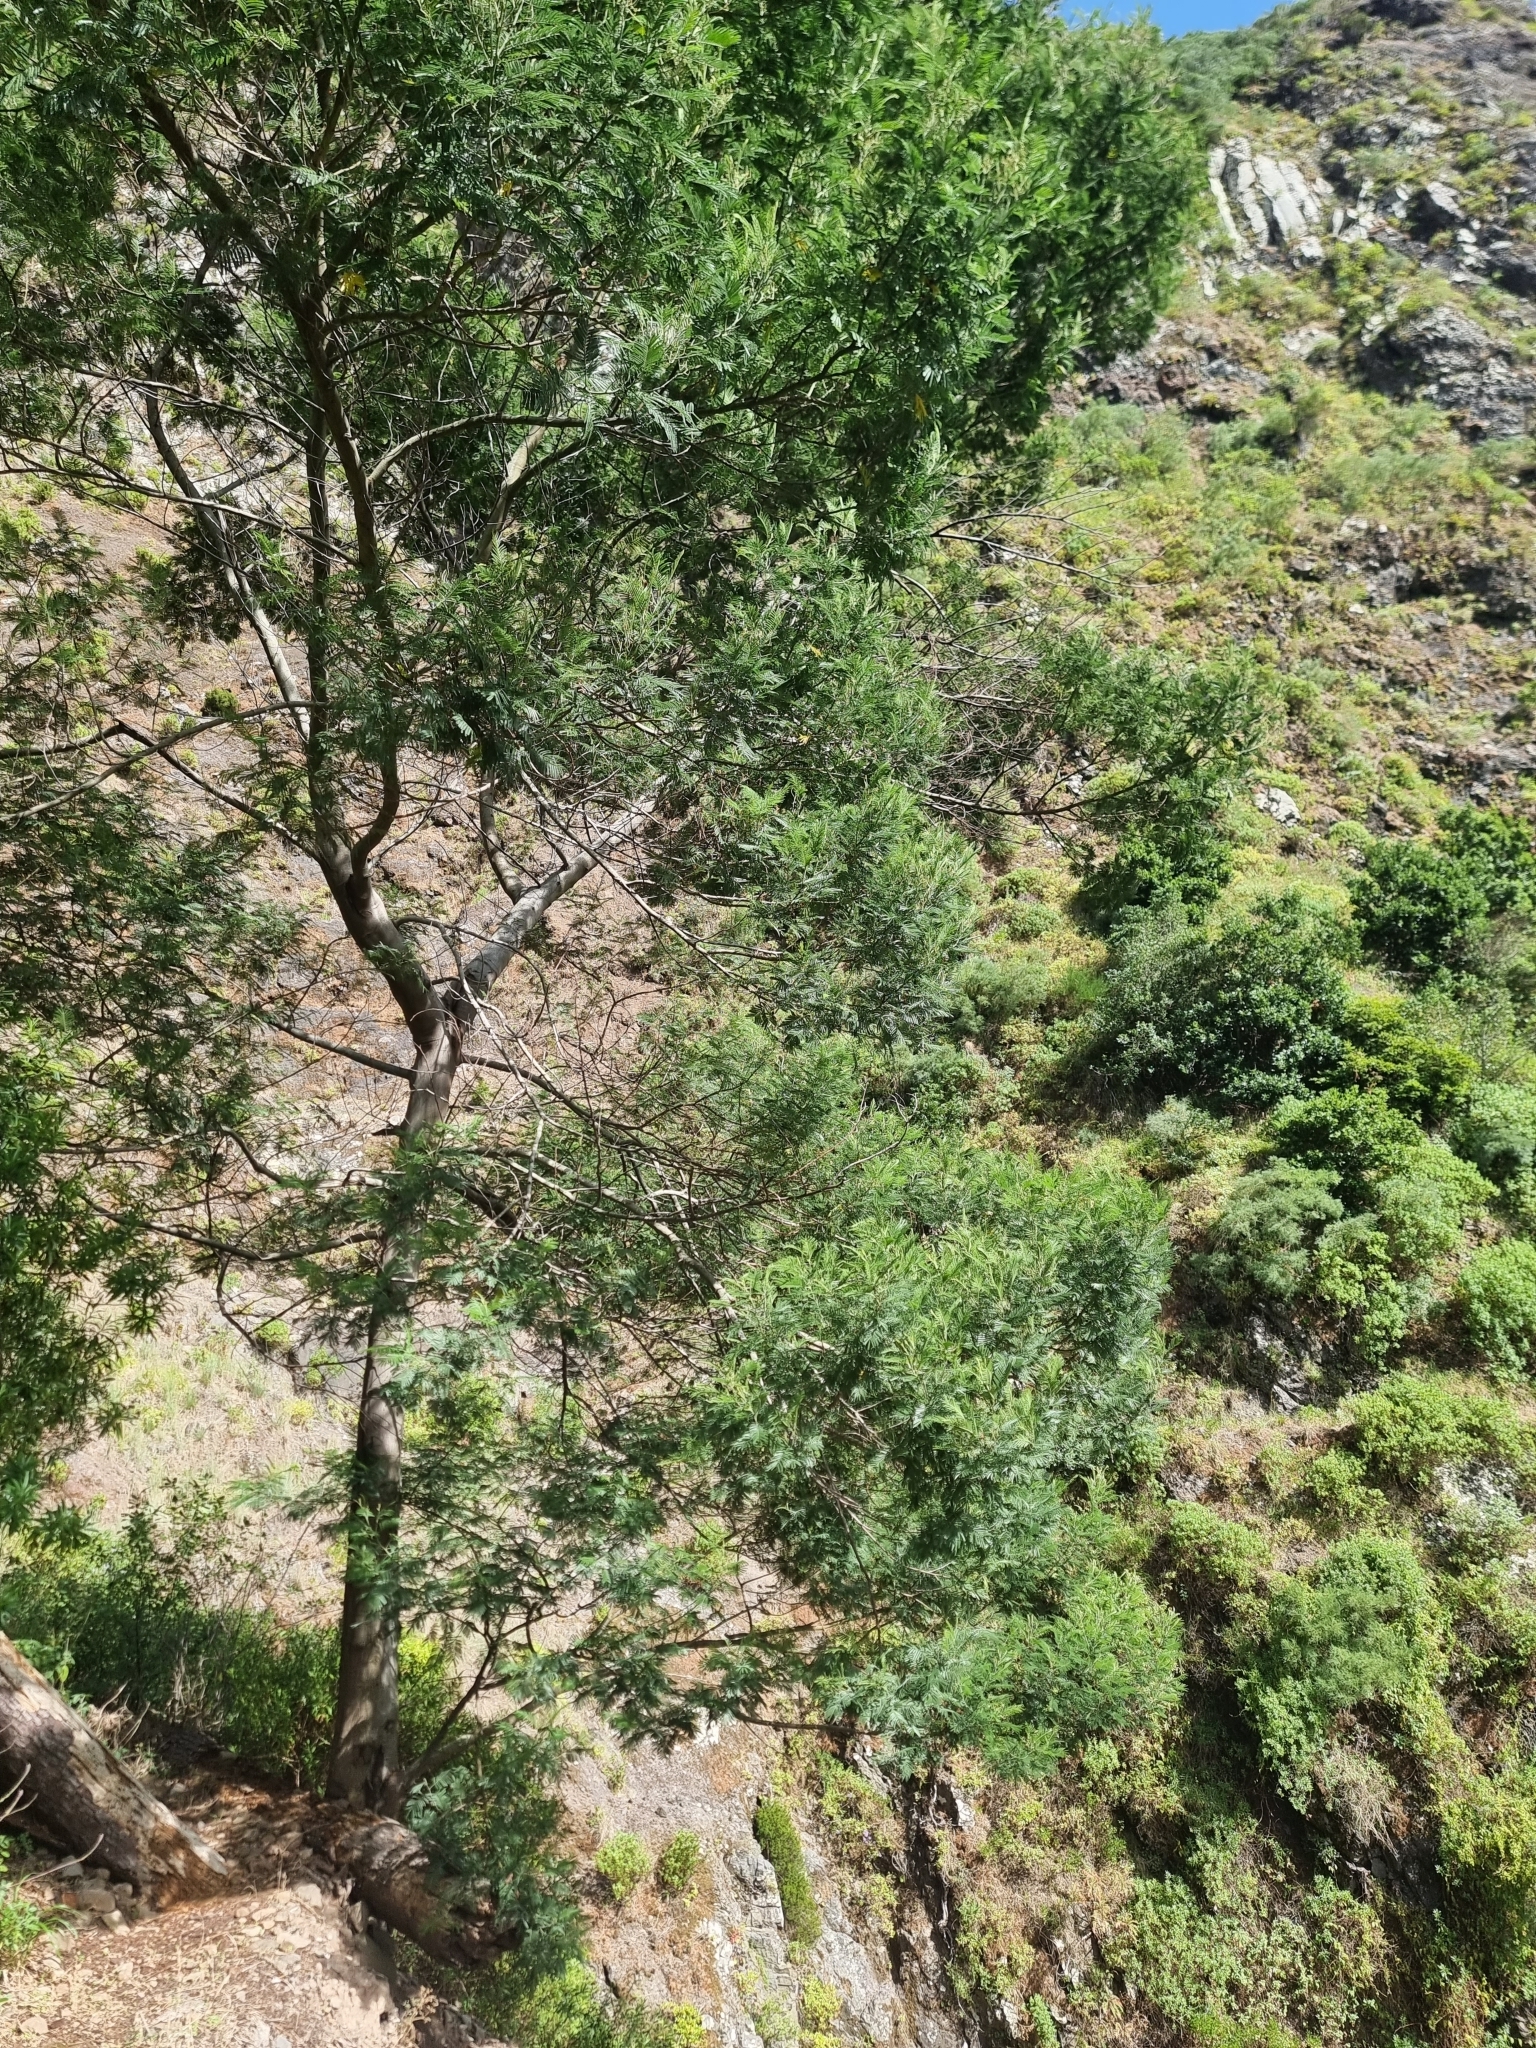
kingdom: Plantae
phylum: Tracheophyta
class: Magnoliopsida
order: Fabales
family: Fabaceae
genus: Acacia
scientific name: Acacia mearnsii
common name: Black wattle
